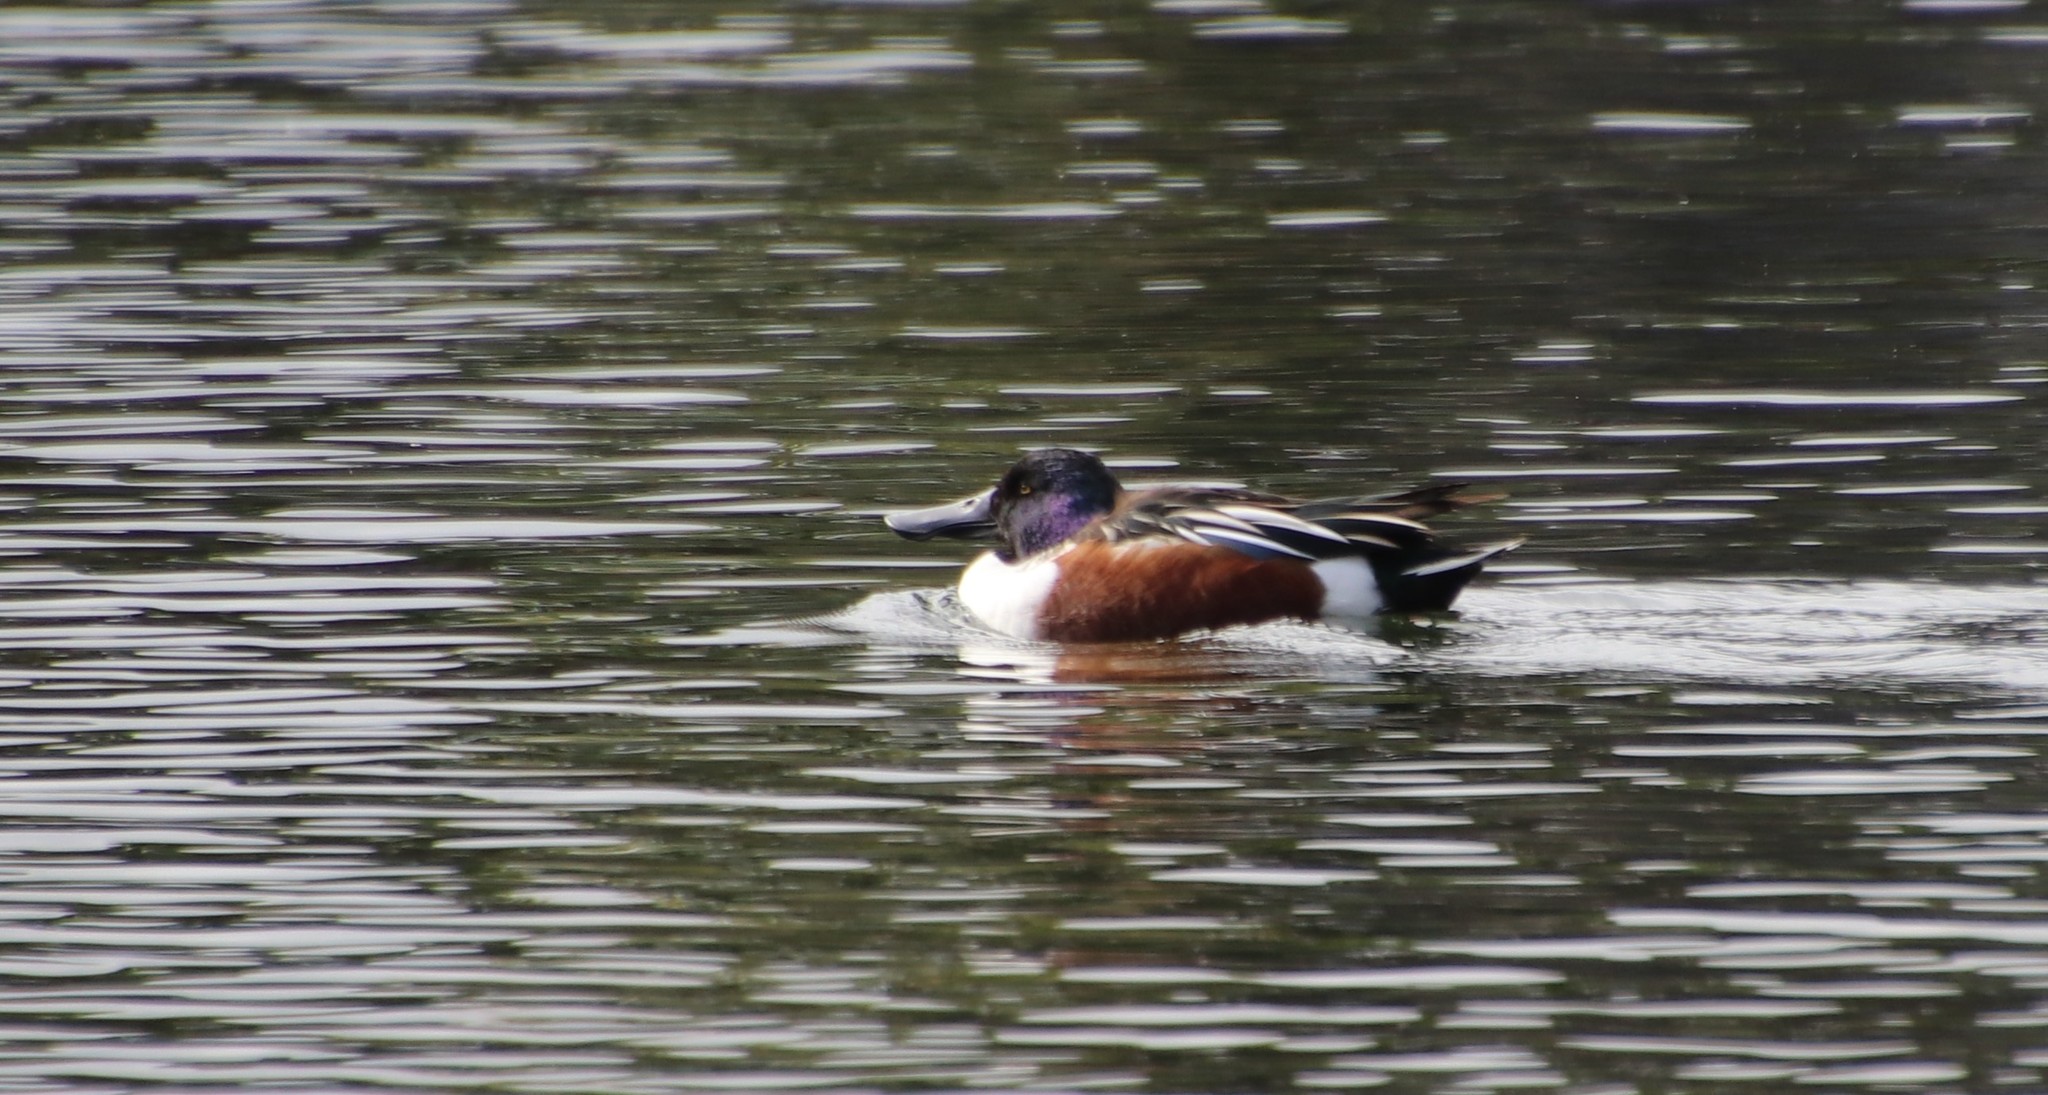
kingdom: Animalia
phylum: Chordata
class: Aves
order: Anseriformes
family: Anatidae
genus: Spatula
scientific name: Spatula clypeata
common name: Northern shoveler
